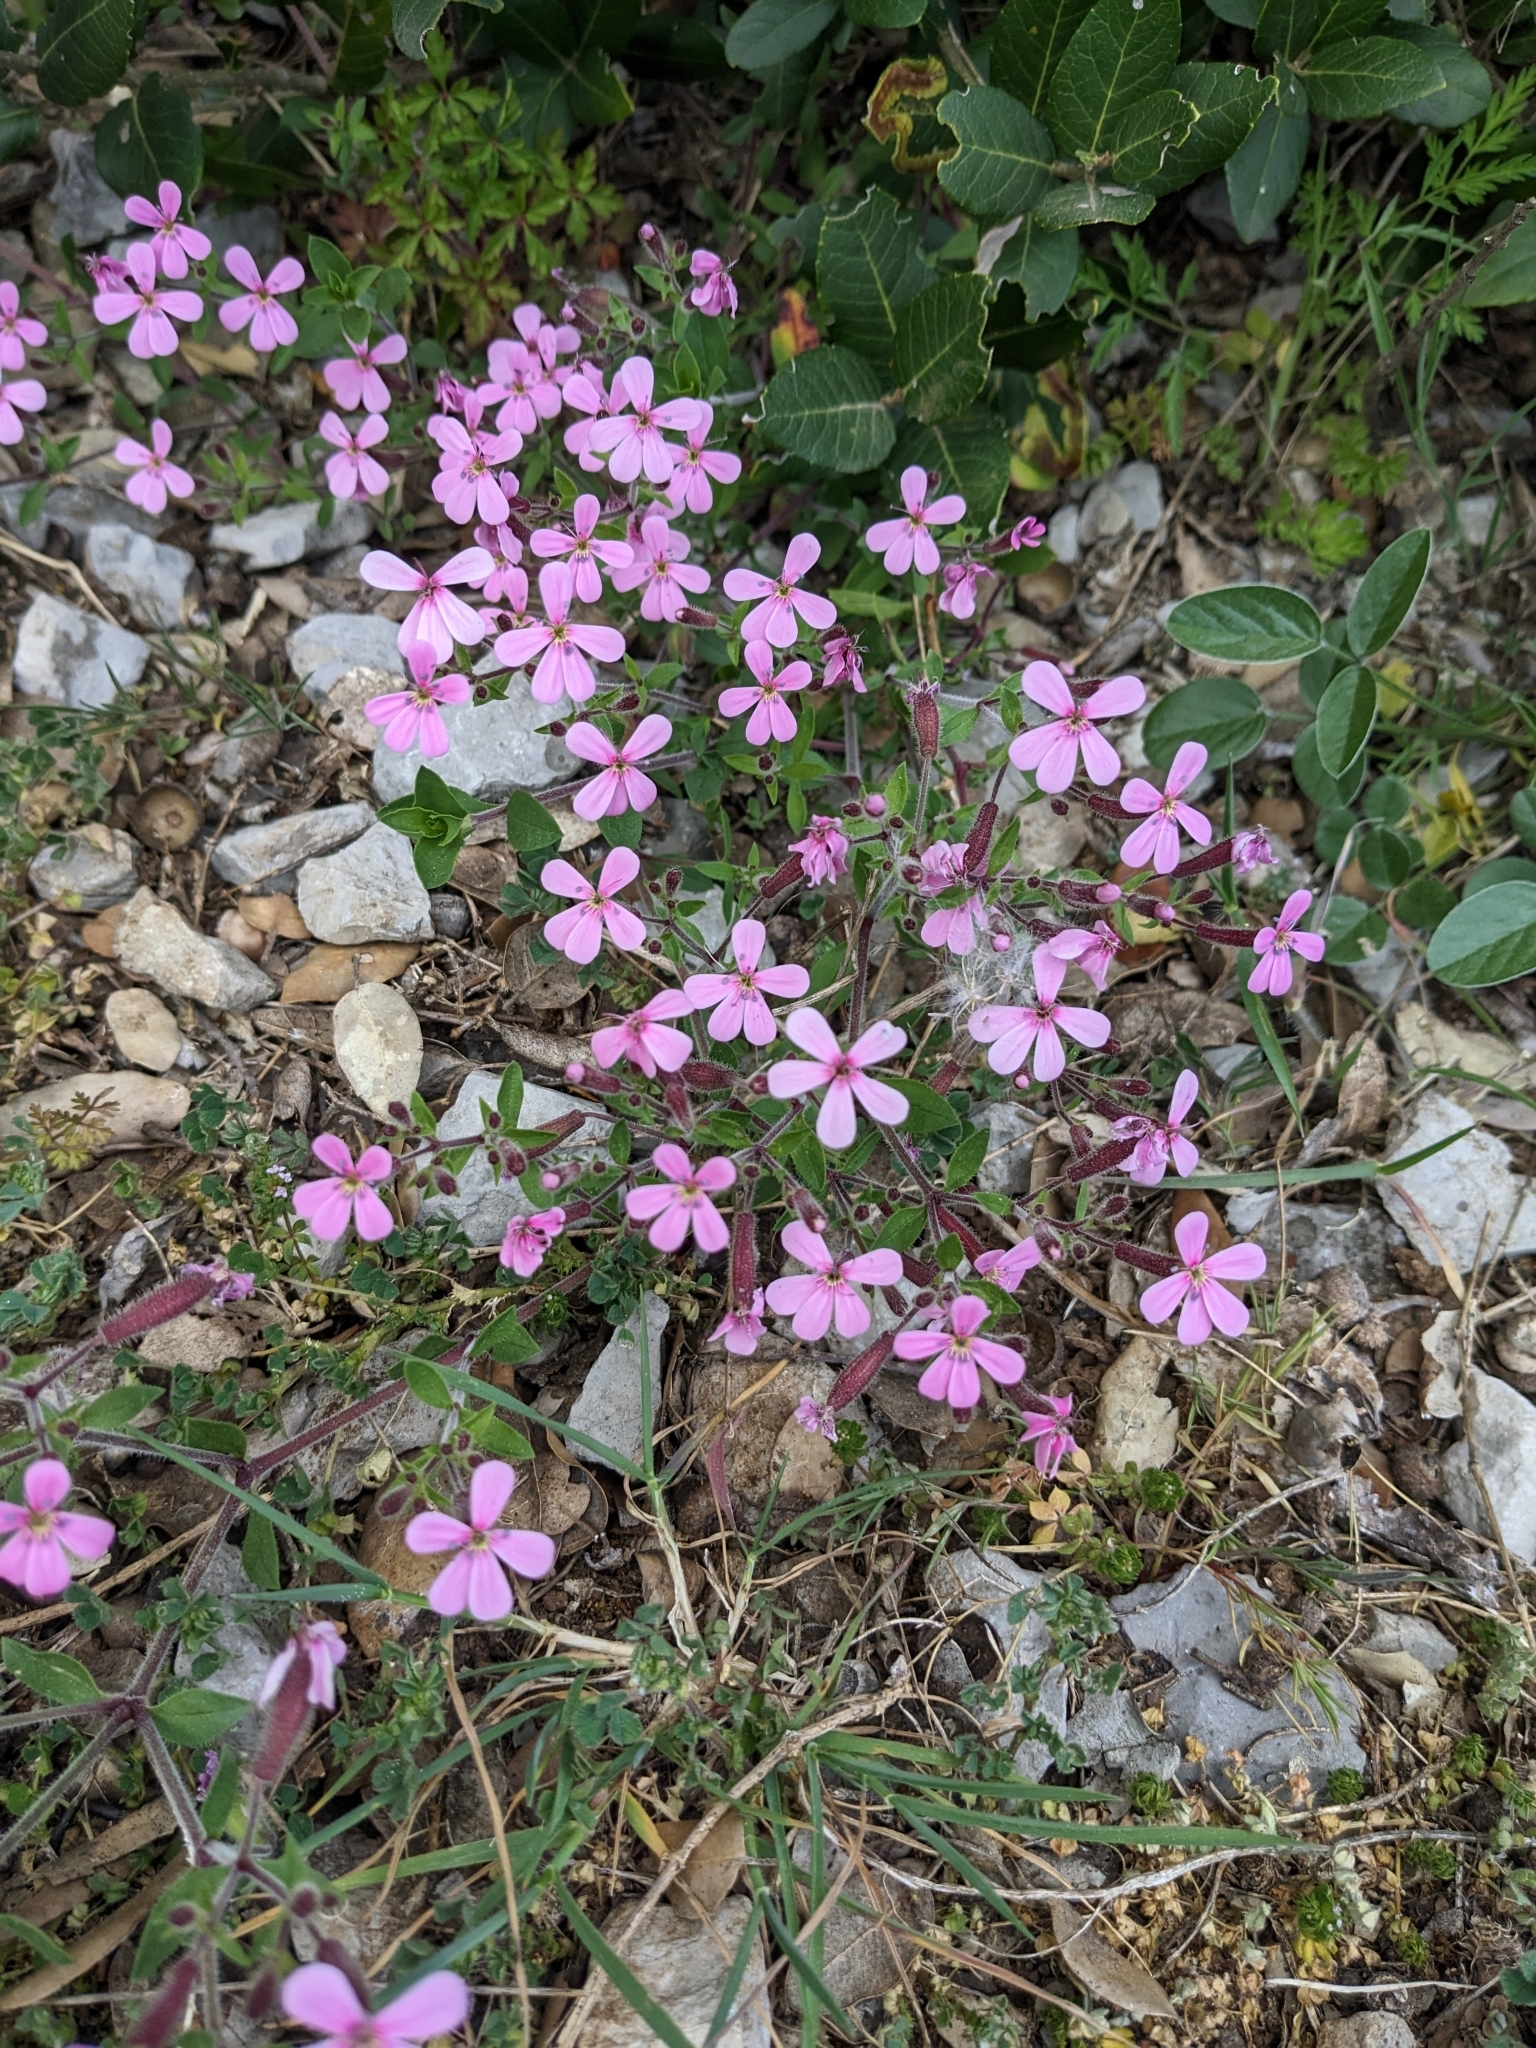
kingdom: Plantae
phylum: Tracheophyta
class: Magnoliopsida
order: Caryophyllales
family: Caryophyllaceae
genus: Saponaria
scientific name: Saponaria ocymoides
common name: Rock soapwort
